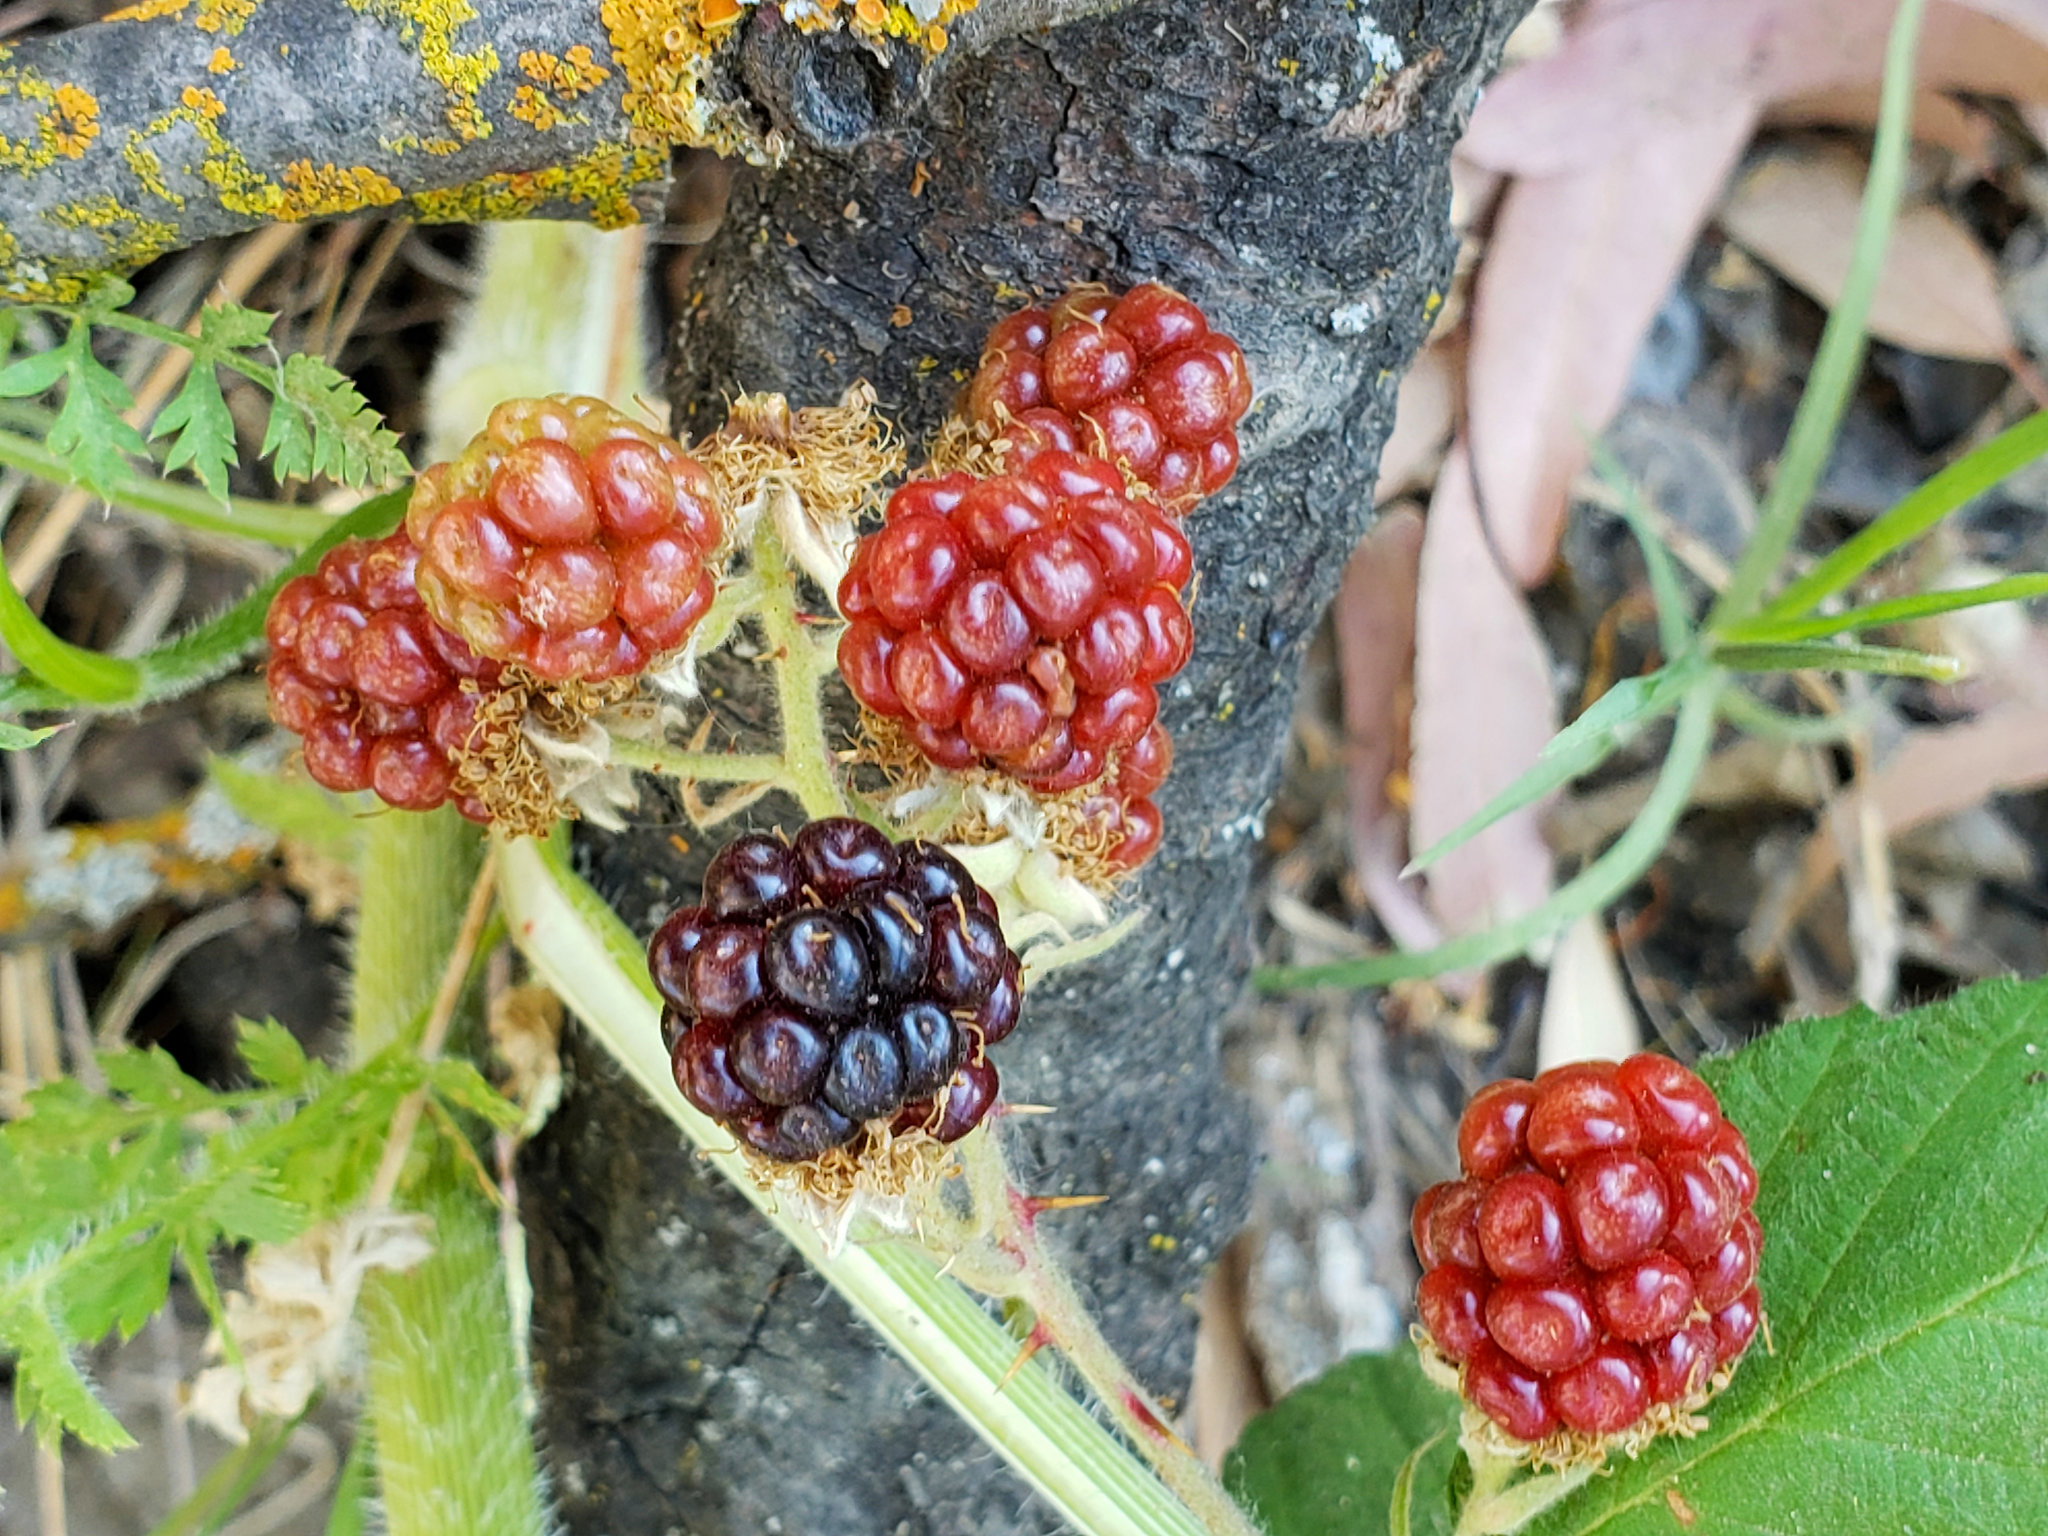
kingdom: Plantae
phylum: Tracheophyta
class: Magnoliopsida
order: Rosales
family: Rosaceae
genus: Rubus
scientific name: Rubus armeniacus
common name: Himalayan blackberry
